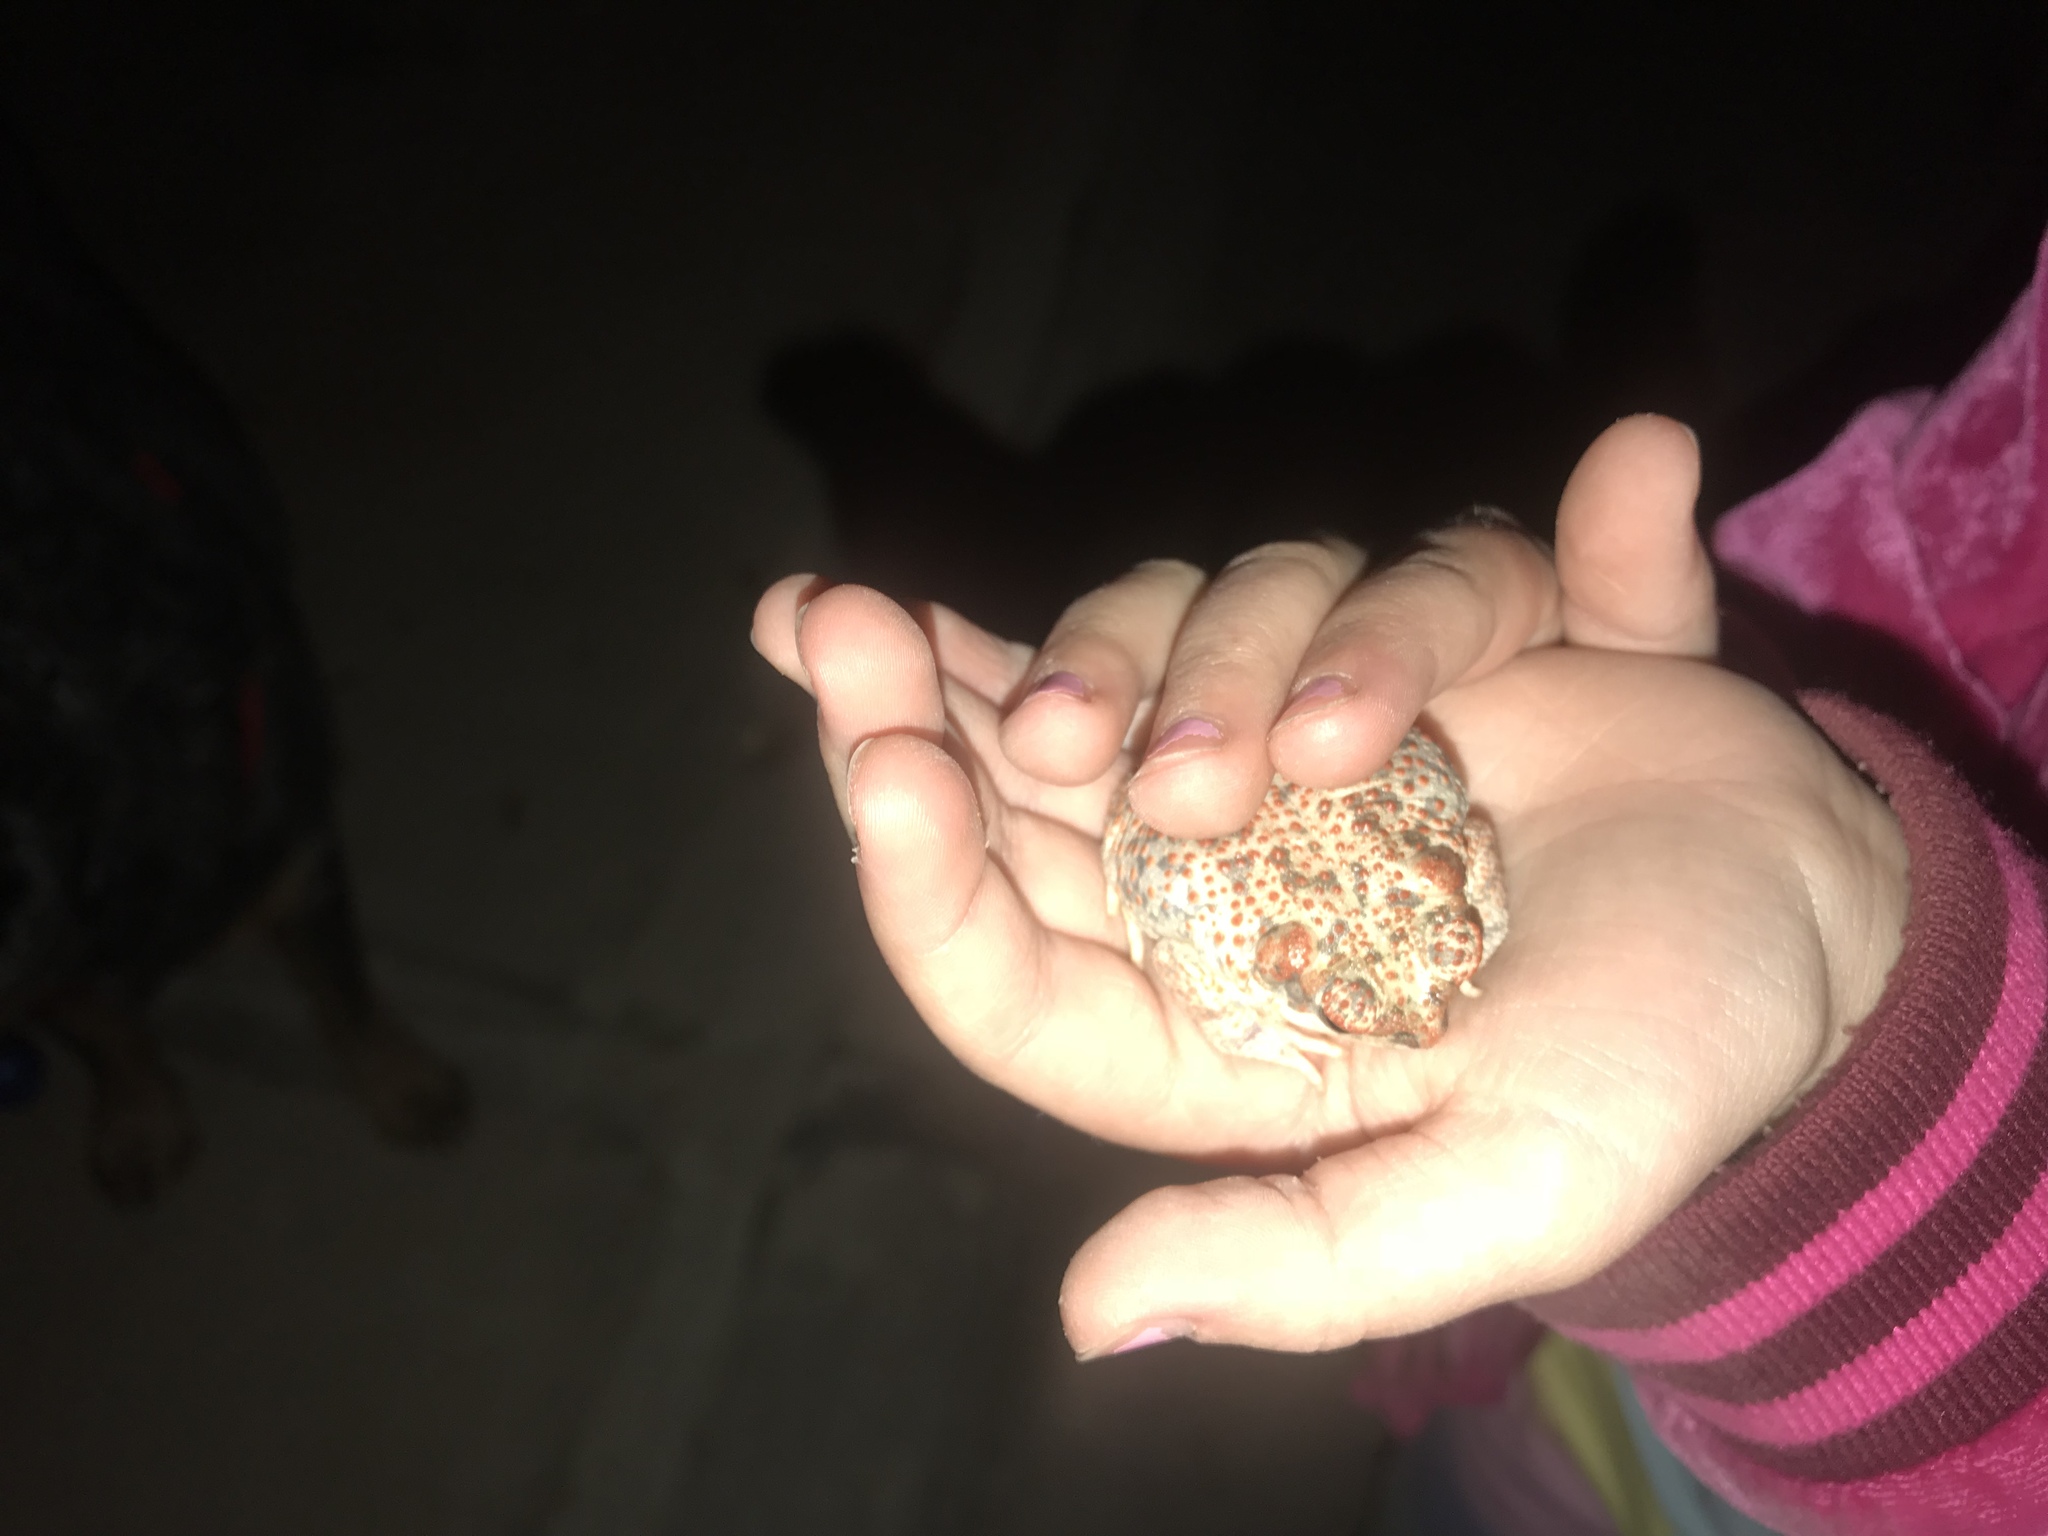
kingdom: Animalia
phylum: Chordata
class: Amphibia
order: Anura
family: Bufonidae
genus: Anaxyrus
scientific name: Anaxyrus punctatus
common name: Red-spotted toad
